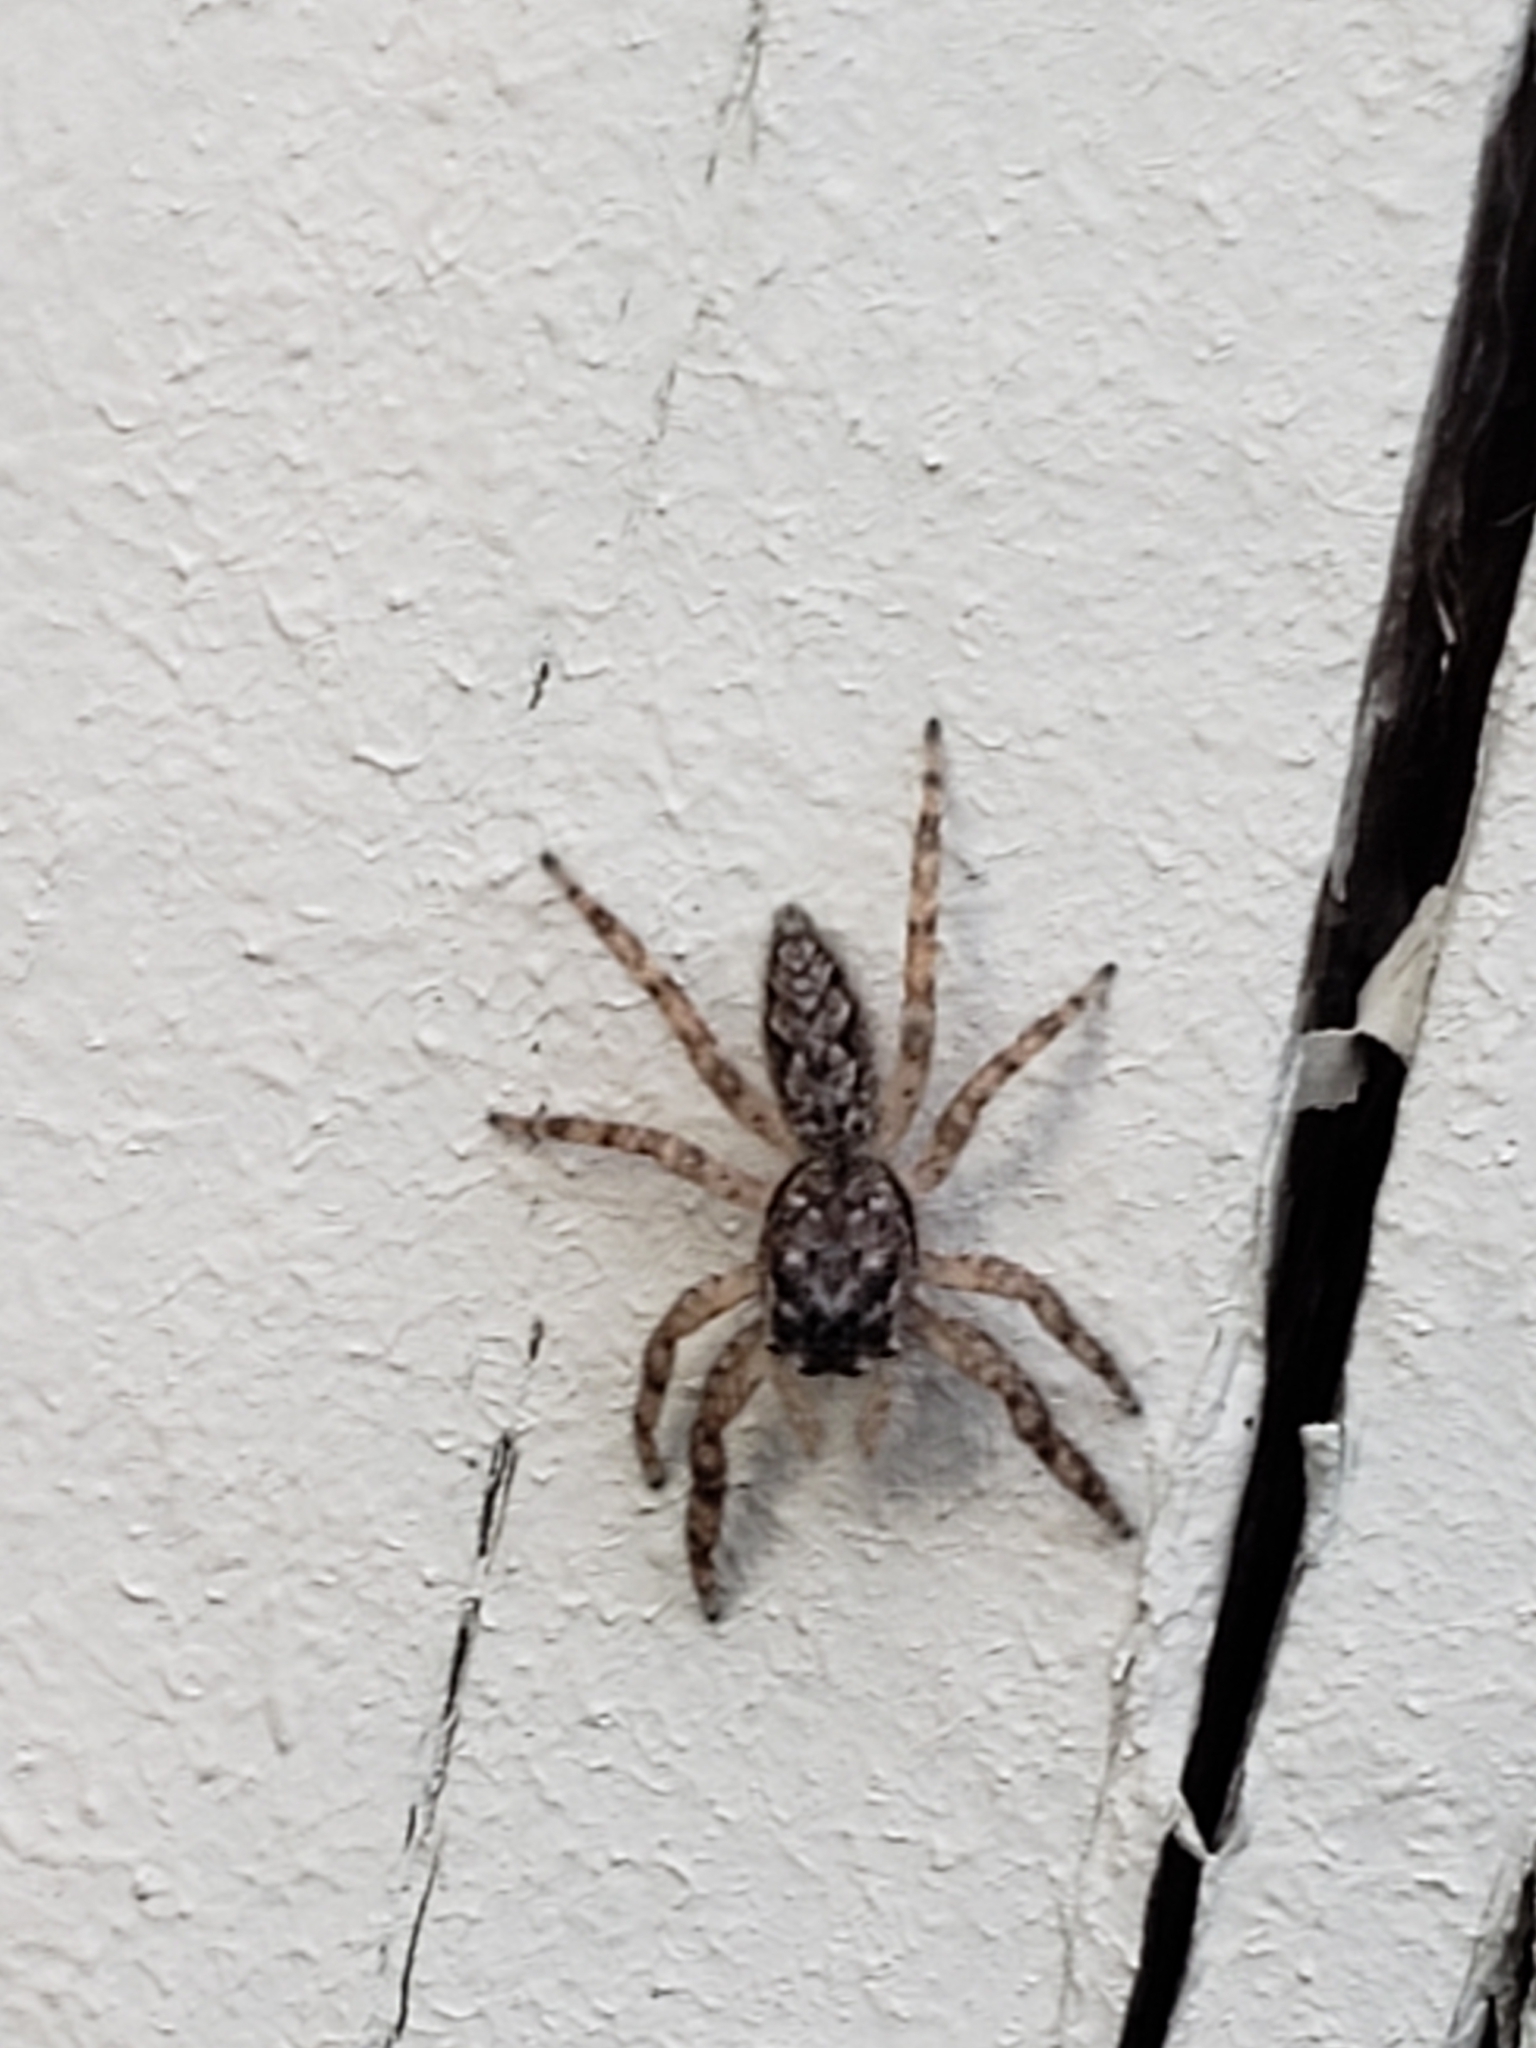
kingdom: Animalia
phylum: Arthropoda
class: Arachnida
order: Araneae
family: Salticidae
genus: Platycryptus
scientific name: Platycryptus undatus
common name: Tan jumping spider
